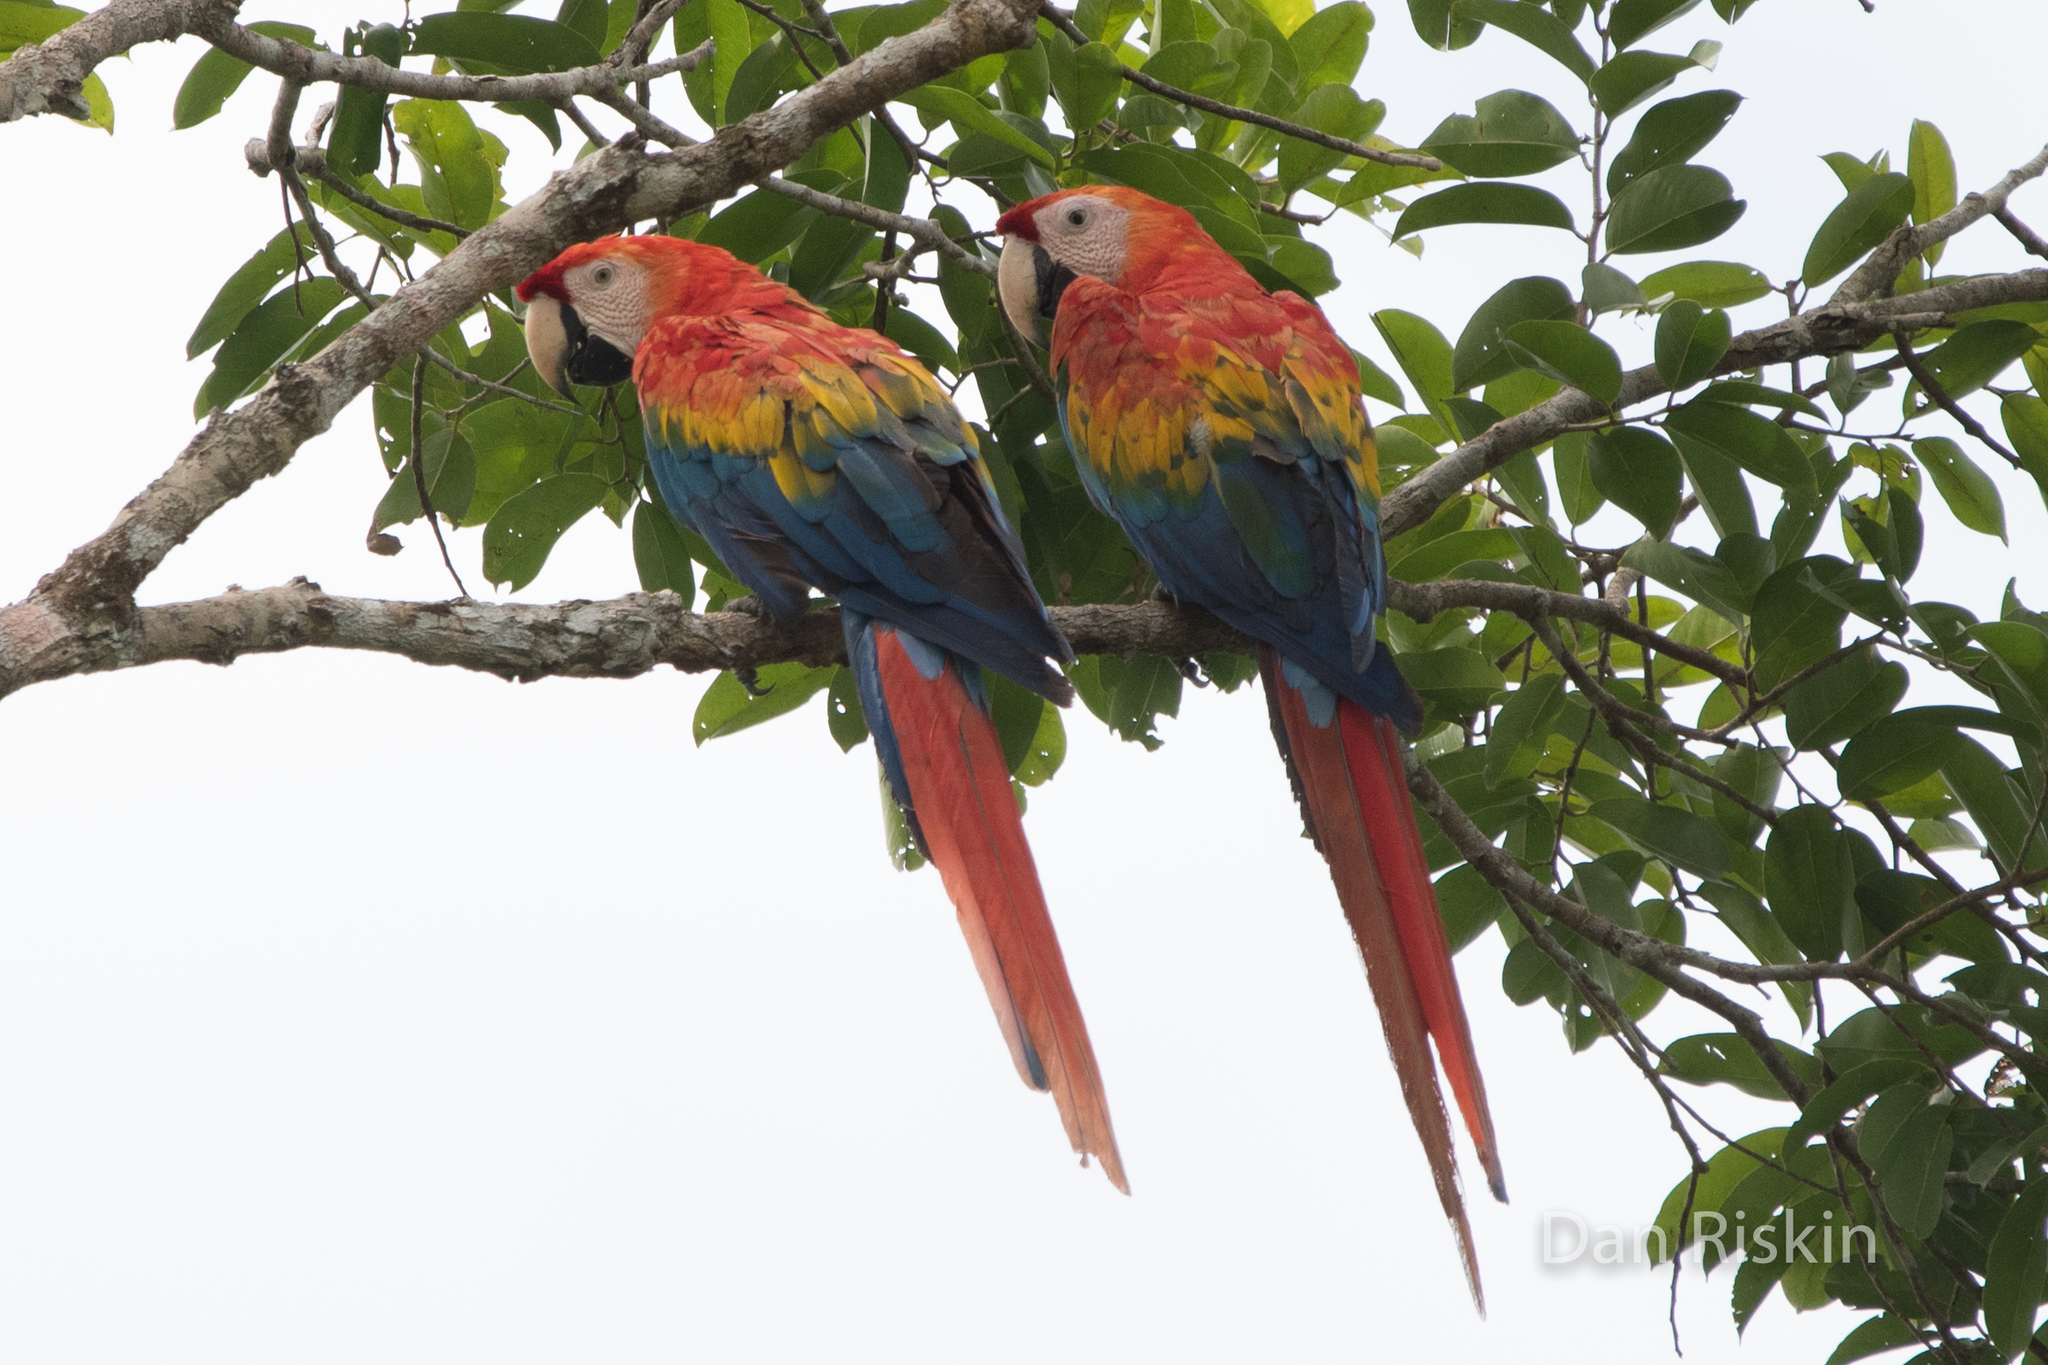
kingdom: Animalia
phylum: Chordata
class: Aves
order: Psittaciformes
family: Psittacidae
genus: Ara
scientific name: Ara macao
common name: Scarlet macaw
